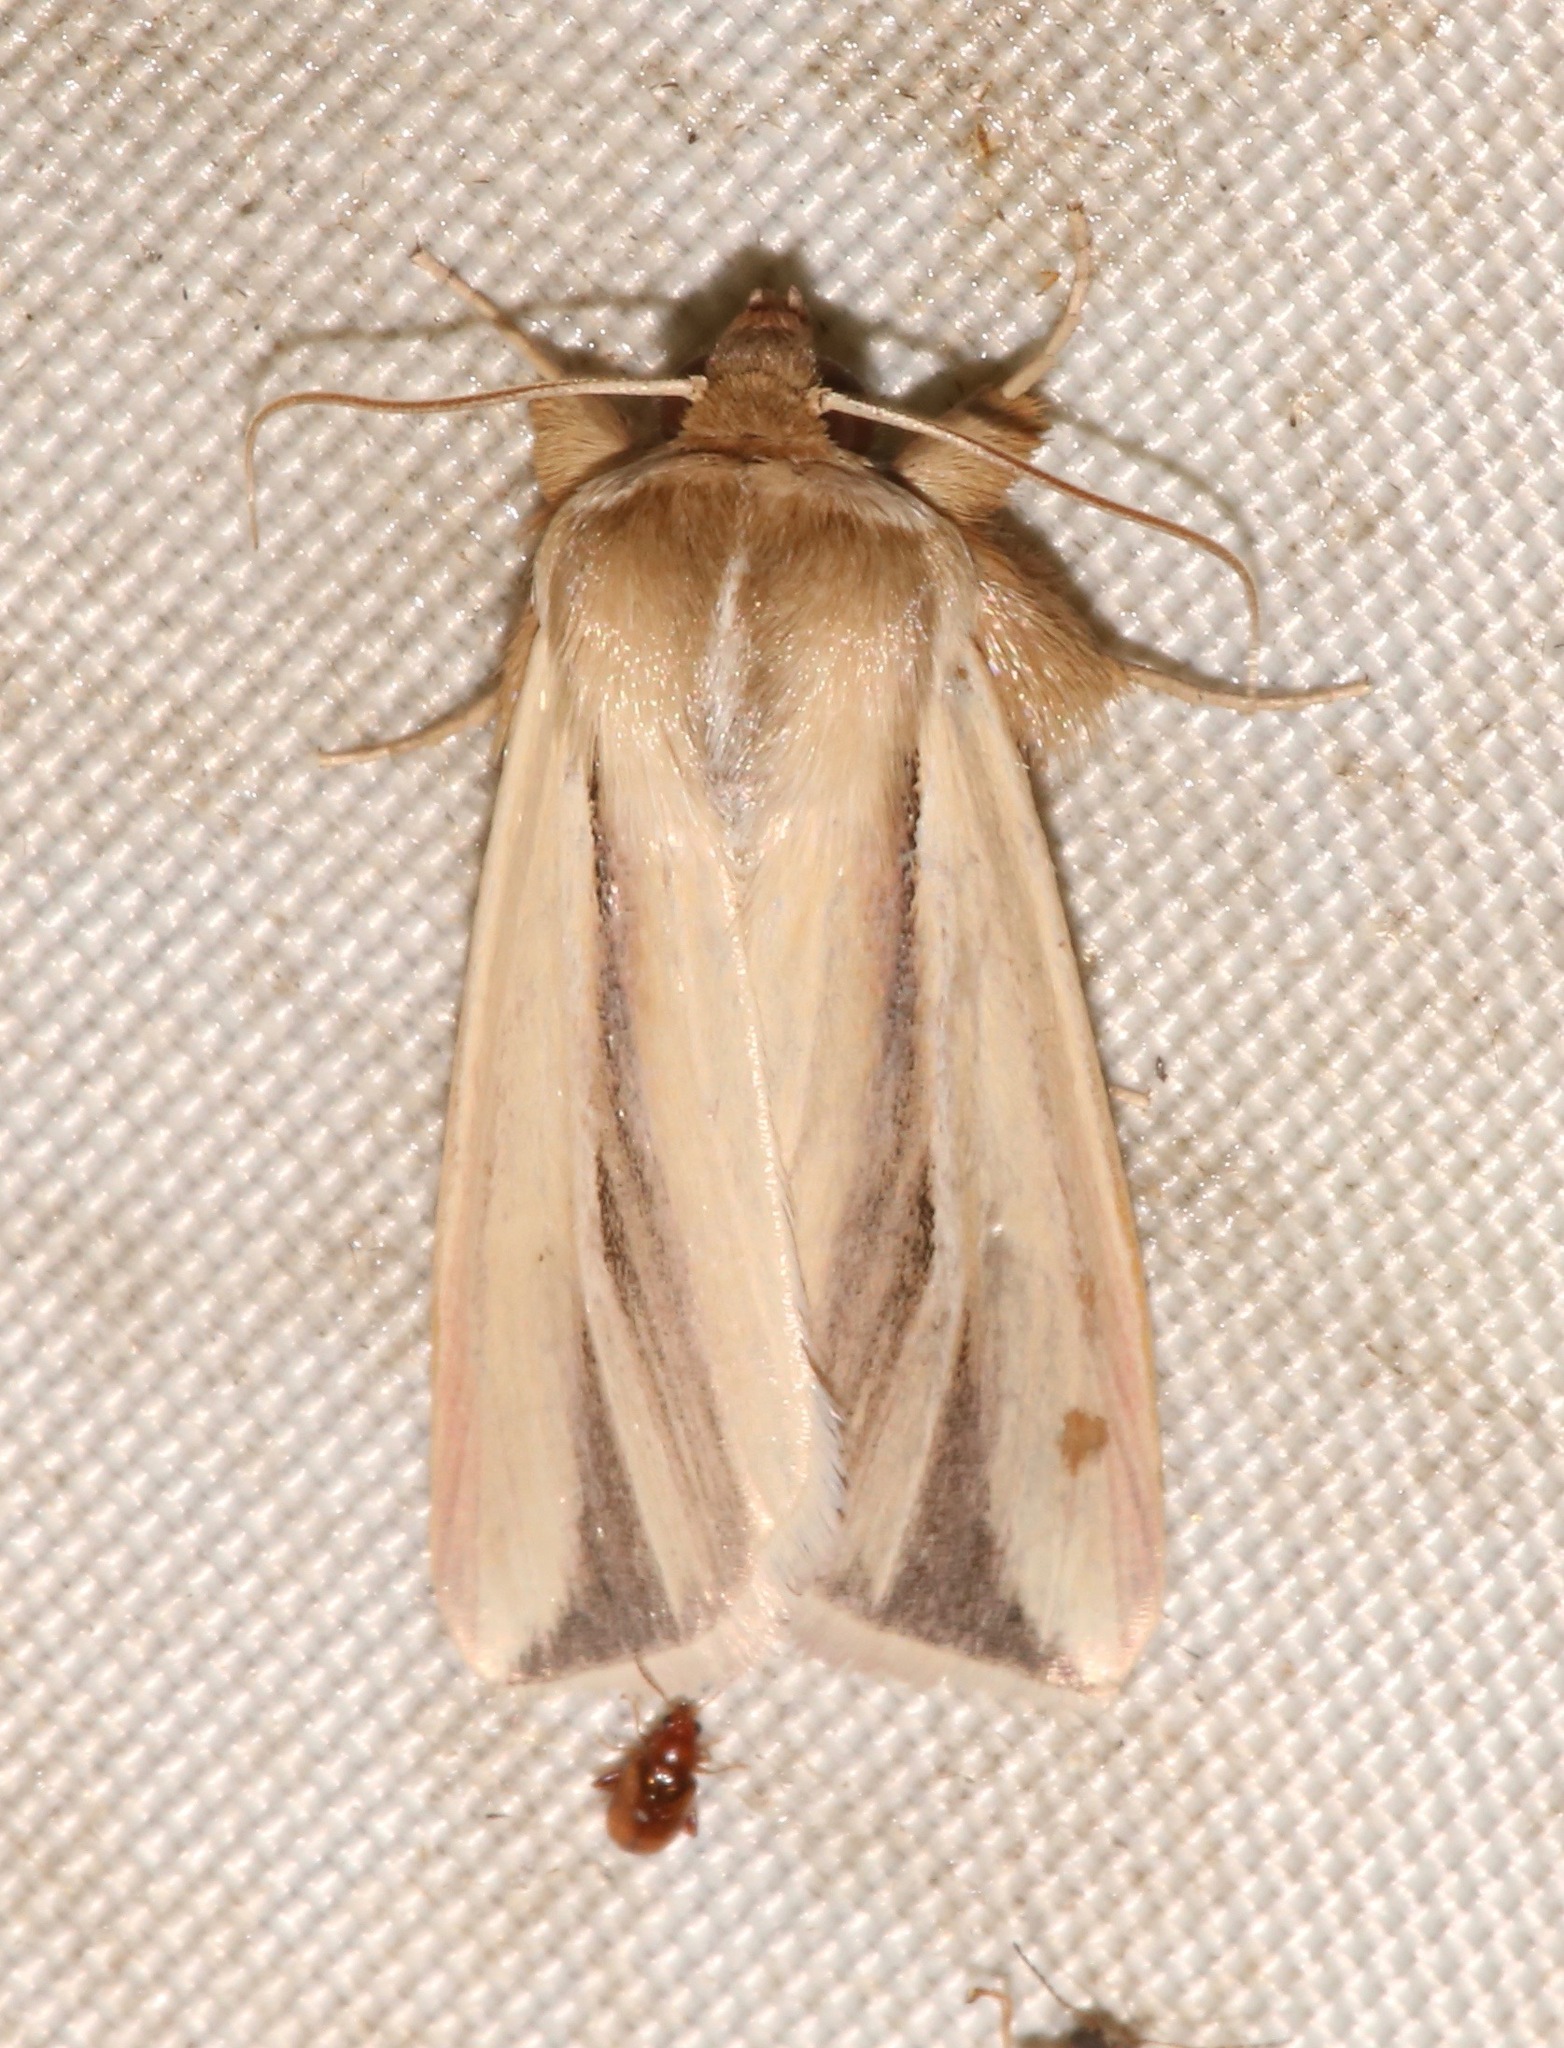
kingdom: Animalia
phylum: Arthropoda
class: Insecta
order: Lepidoptera
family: Noctuidae
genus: Dargida
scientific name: Dargida diffusa
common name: Wheat head armyworm
